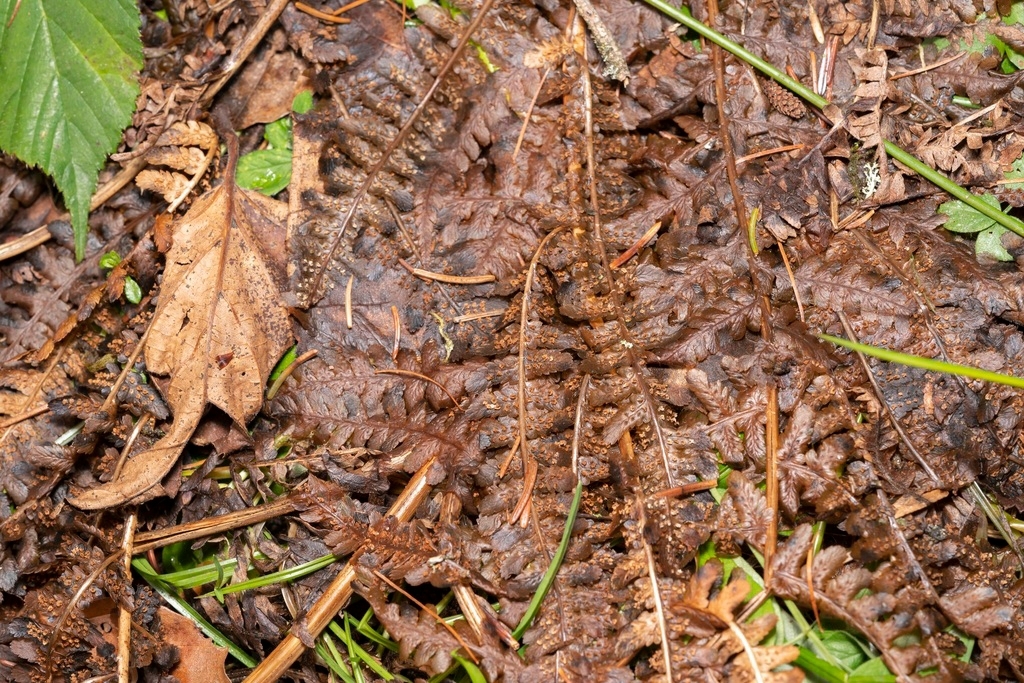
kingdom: Plantae
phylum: Tracheophyta
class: Polypodiopsida
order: Polypodiales
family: Dryopteridaceae
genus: Dryopteris
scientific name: Dryopteris filix-mas
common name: Male fern
